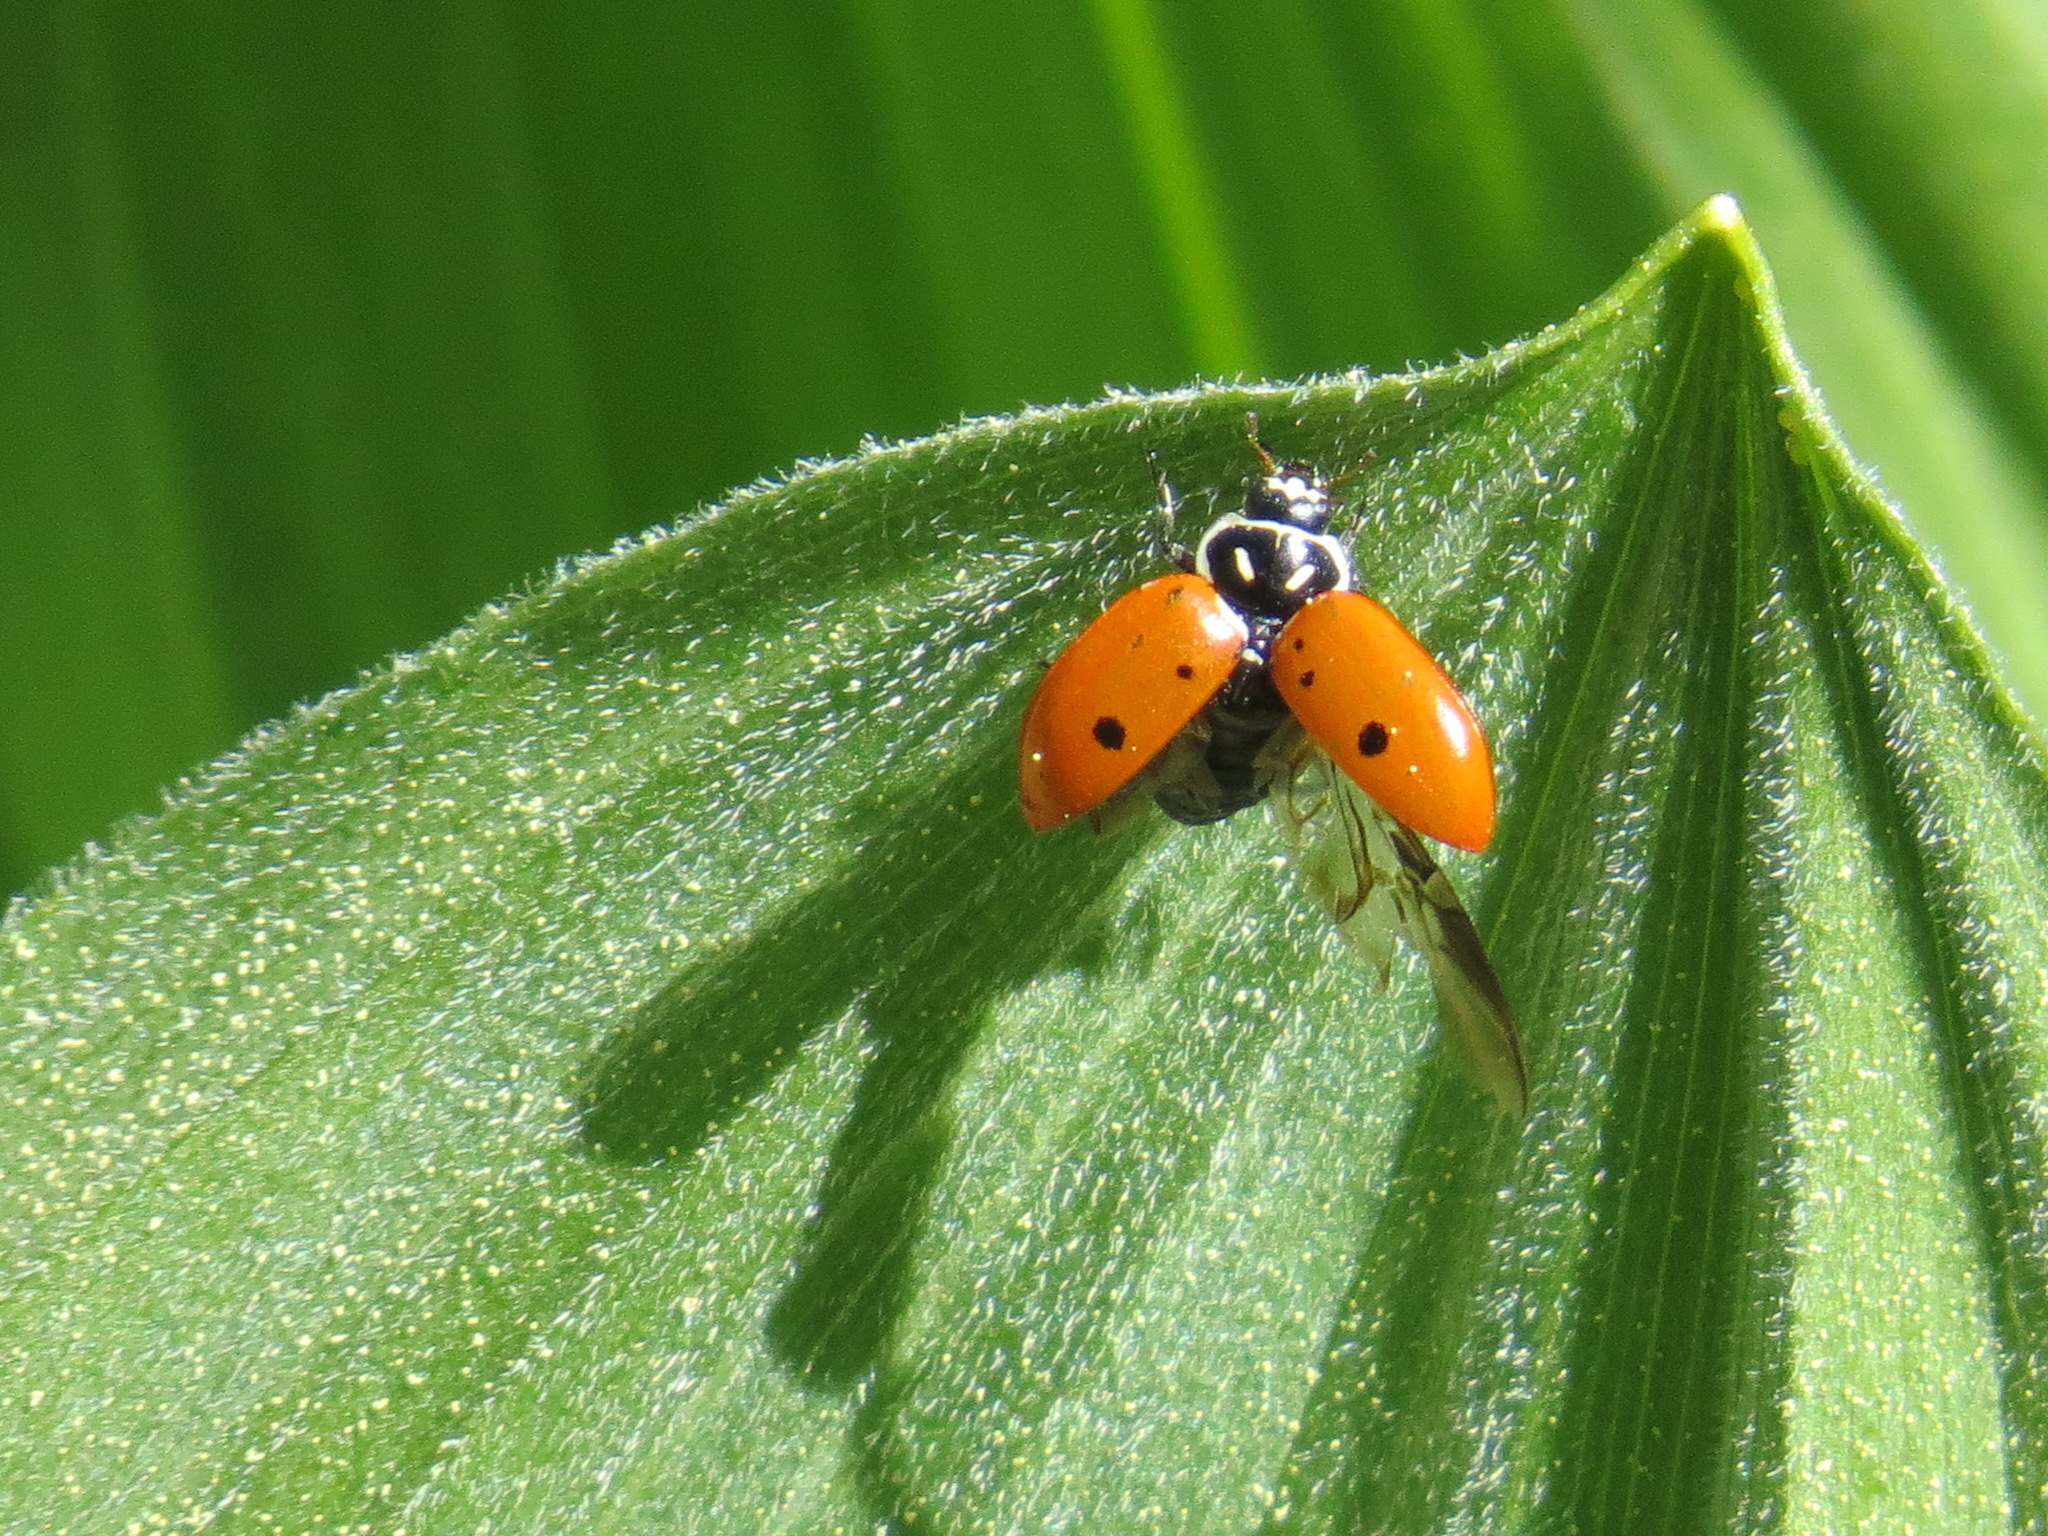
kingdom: Animalia
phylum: Arthropoda
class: Insecta
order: Coleoptera
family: Coccinellidae
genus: Hippodamia
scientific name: Hippodamia convergens
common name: Convergent lady beetle
